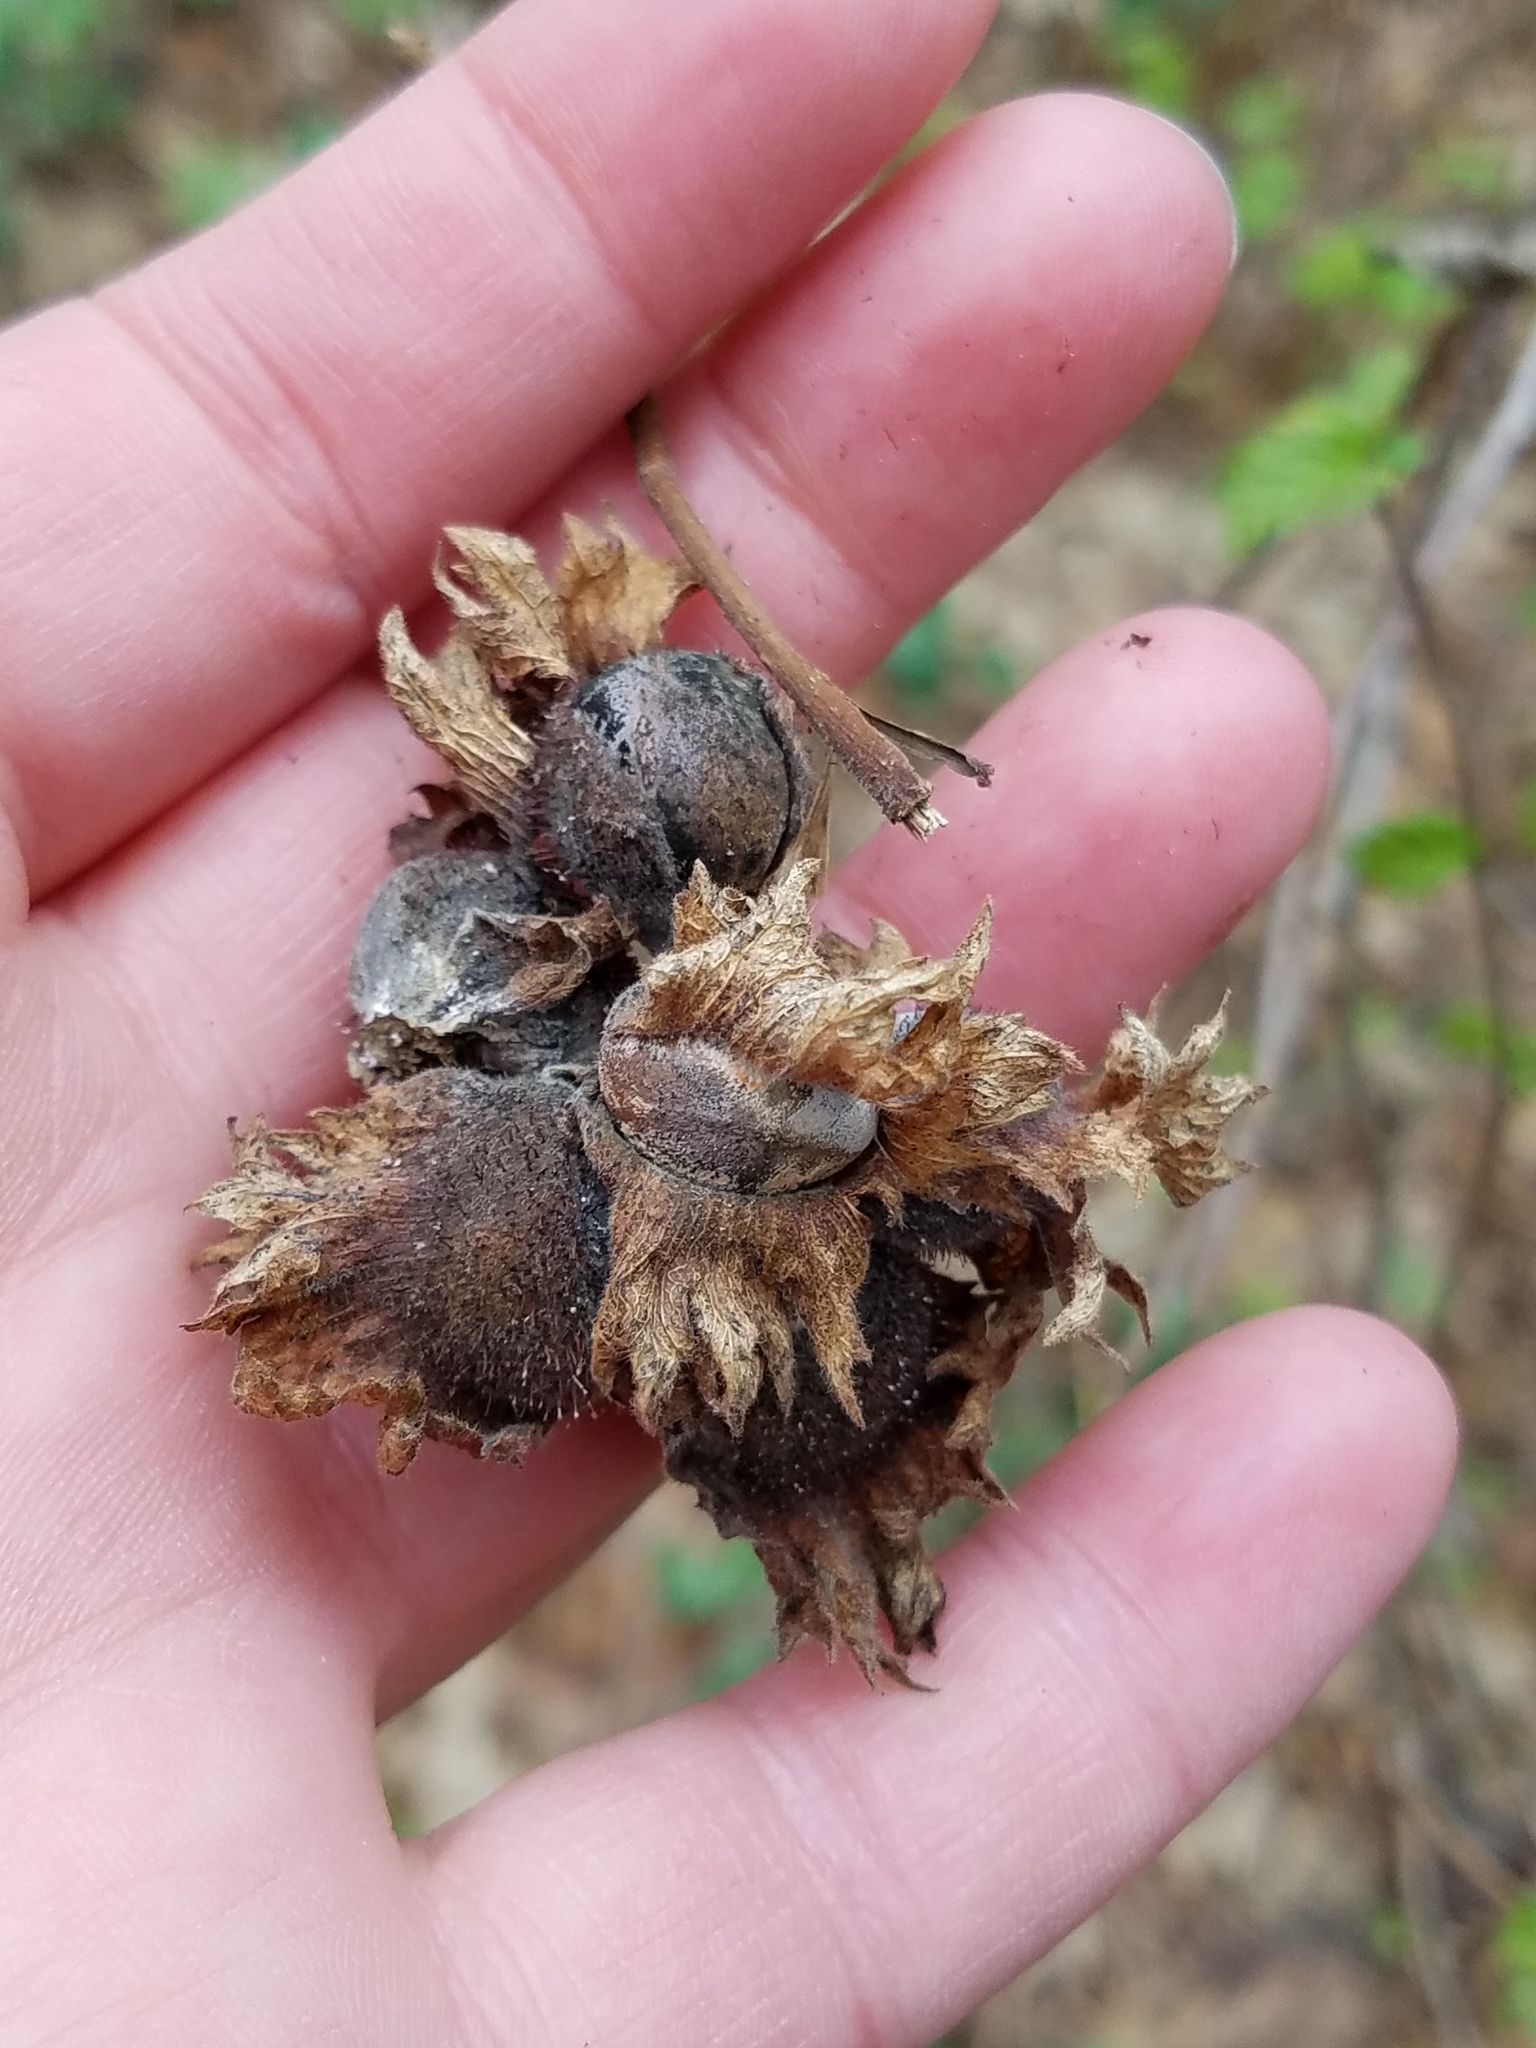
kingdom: Plantae
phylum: Tracheophyta
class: Magnoliopsida
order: Fagales
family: Betulaceae
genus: Corylus
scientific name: Corylus americana
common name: American hazel
